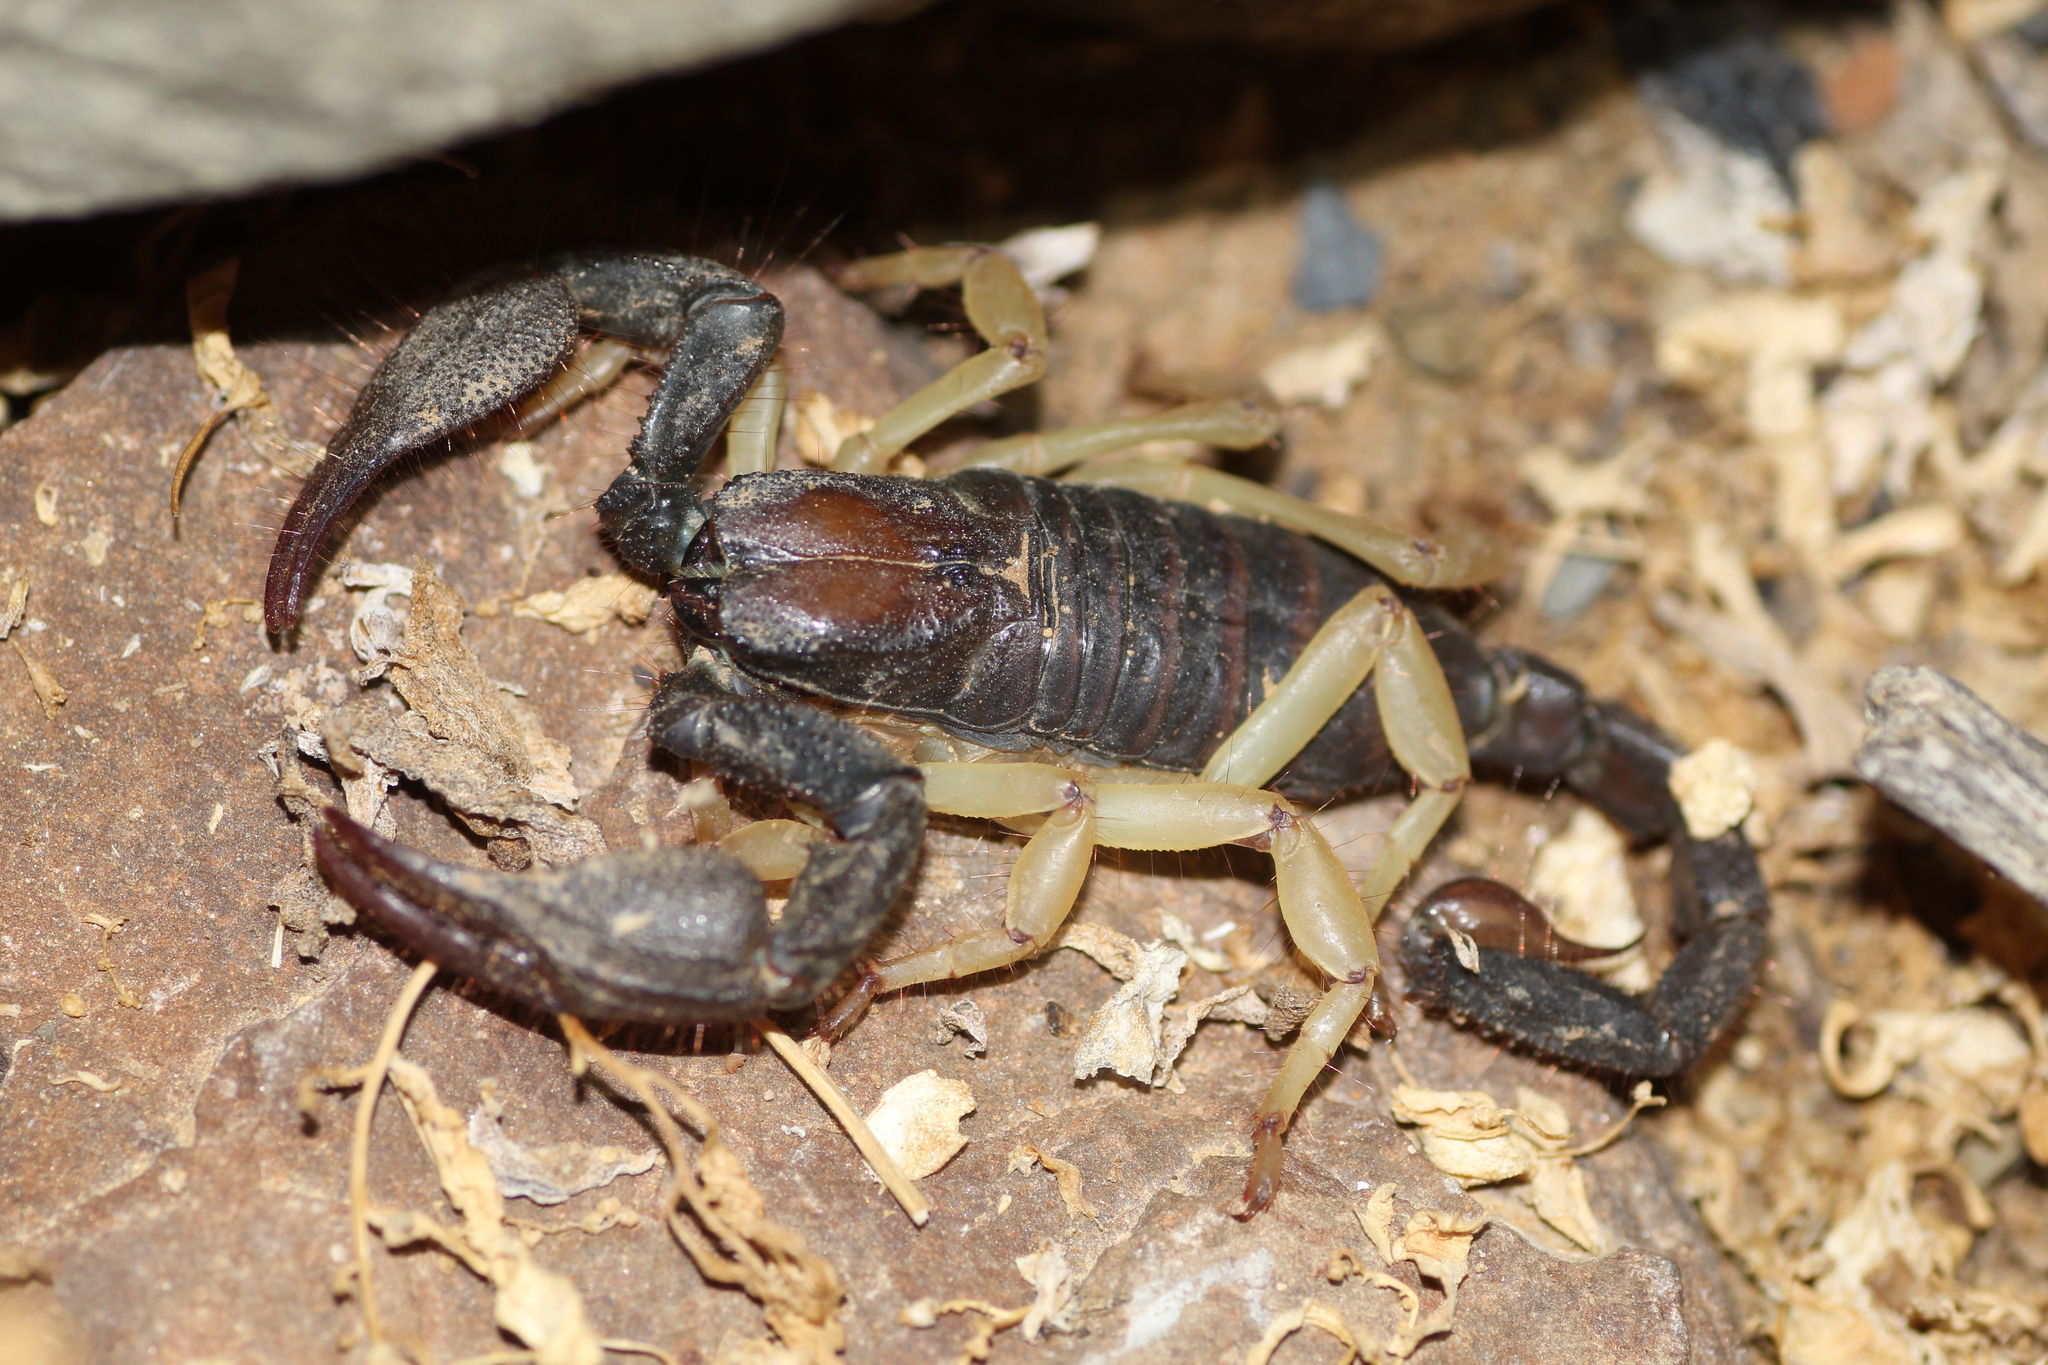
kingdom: Animalia
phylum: Arthropoda
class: Arachnida
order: Scorpiones
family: Scorpionidae
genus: Opistophthalmus
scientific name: Opistophthalmus pallipes
